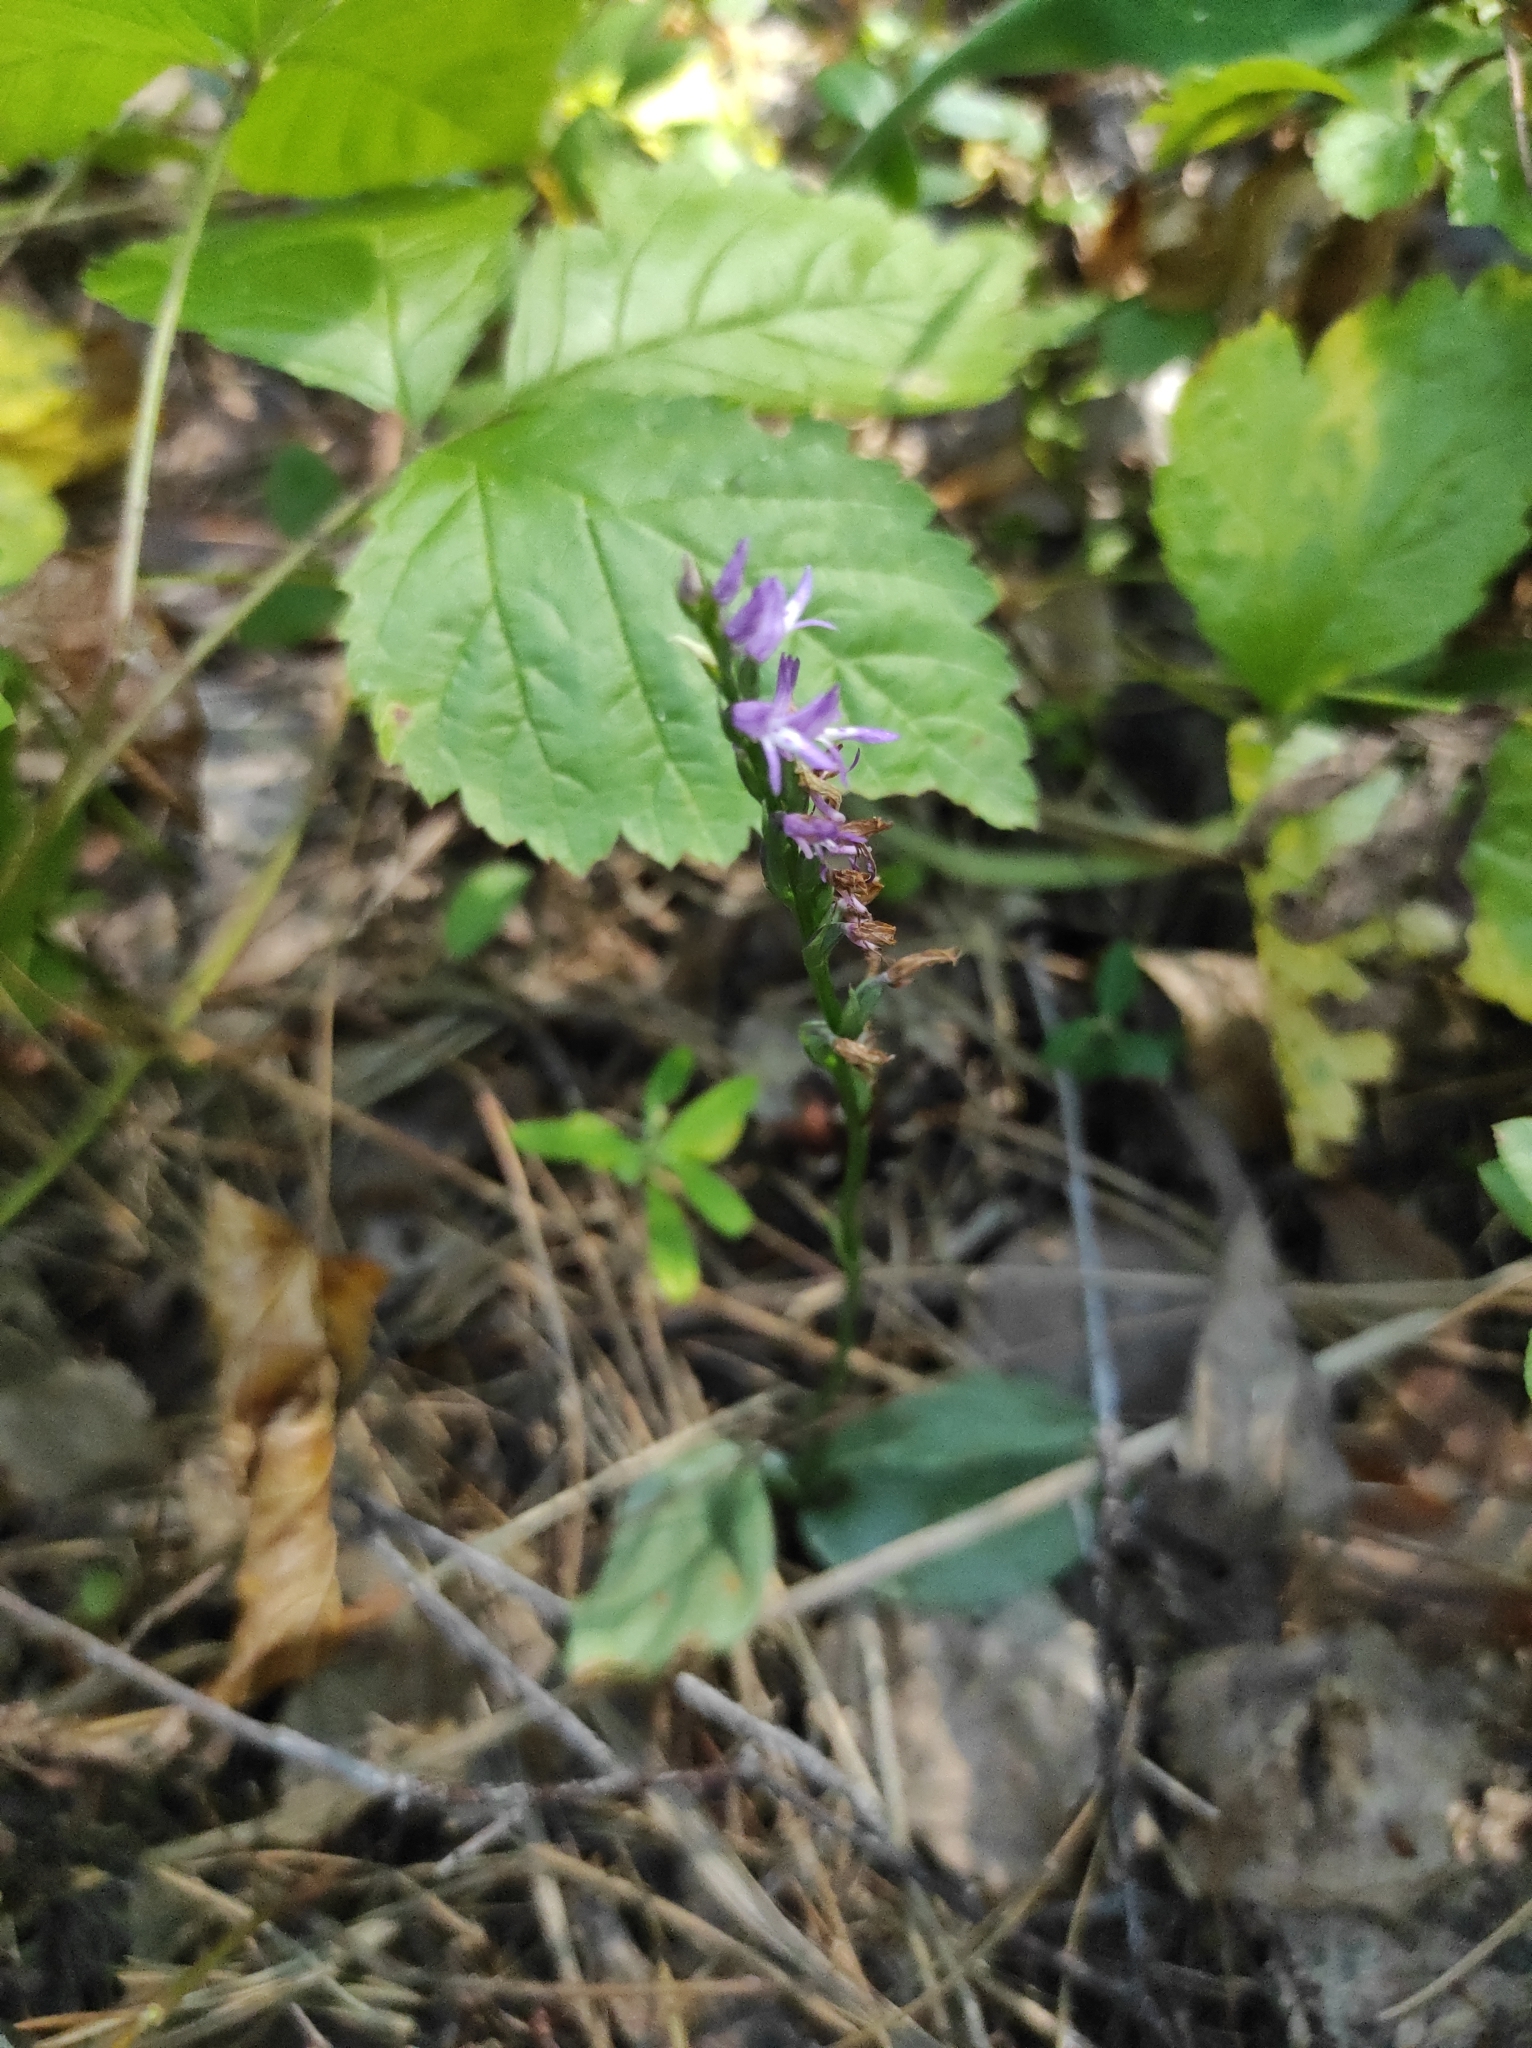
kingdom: Plantae
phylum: Tracheophyta
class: Liliopsida
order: Asparagales
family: Orchidaceae
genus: Hemipilia
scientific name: Hemipilia cucullata
